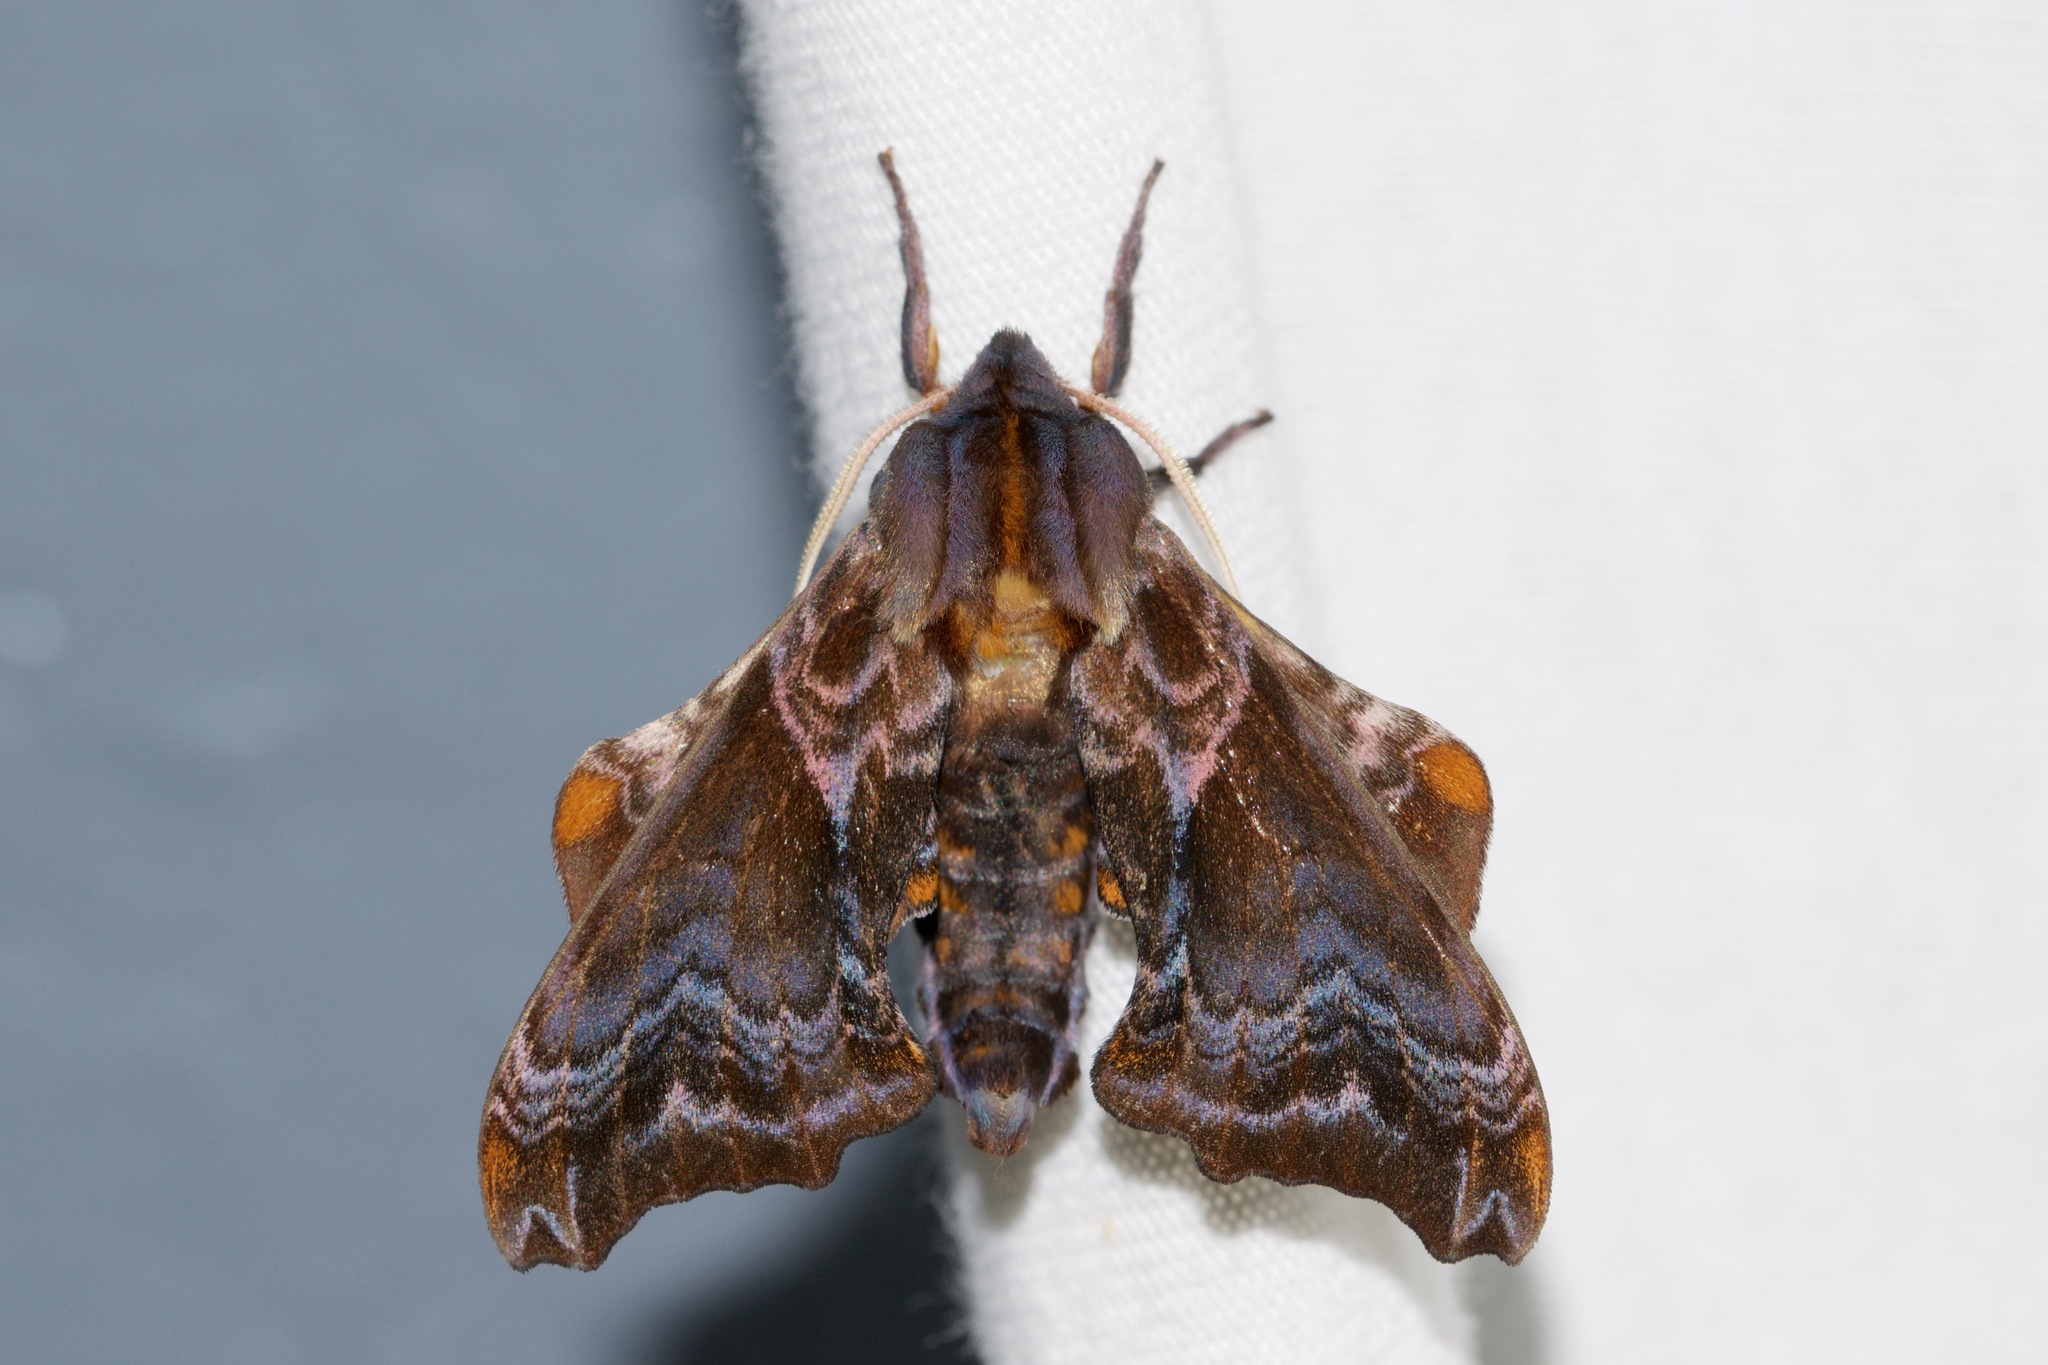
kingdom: Animalia
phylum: Arthropoda
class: Insecta
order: Lepidoptera
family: Sphingidae
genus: Paonias
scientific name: Paonias myops
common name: Small-eyed sphinx
